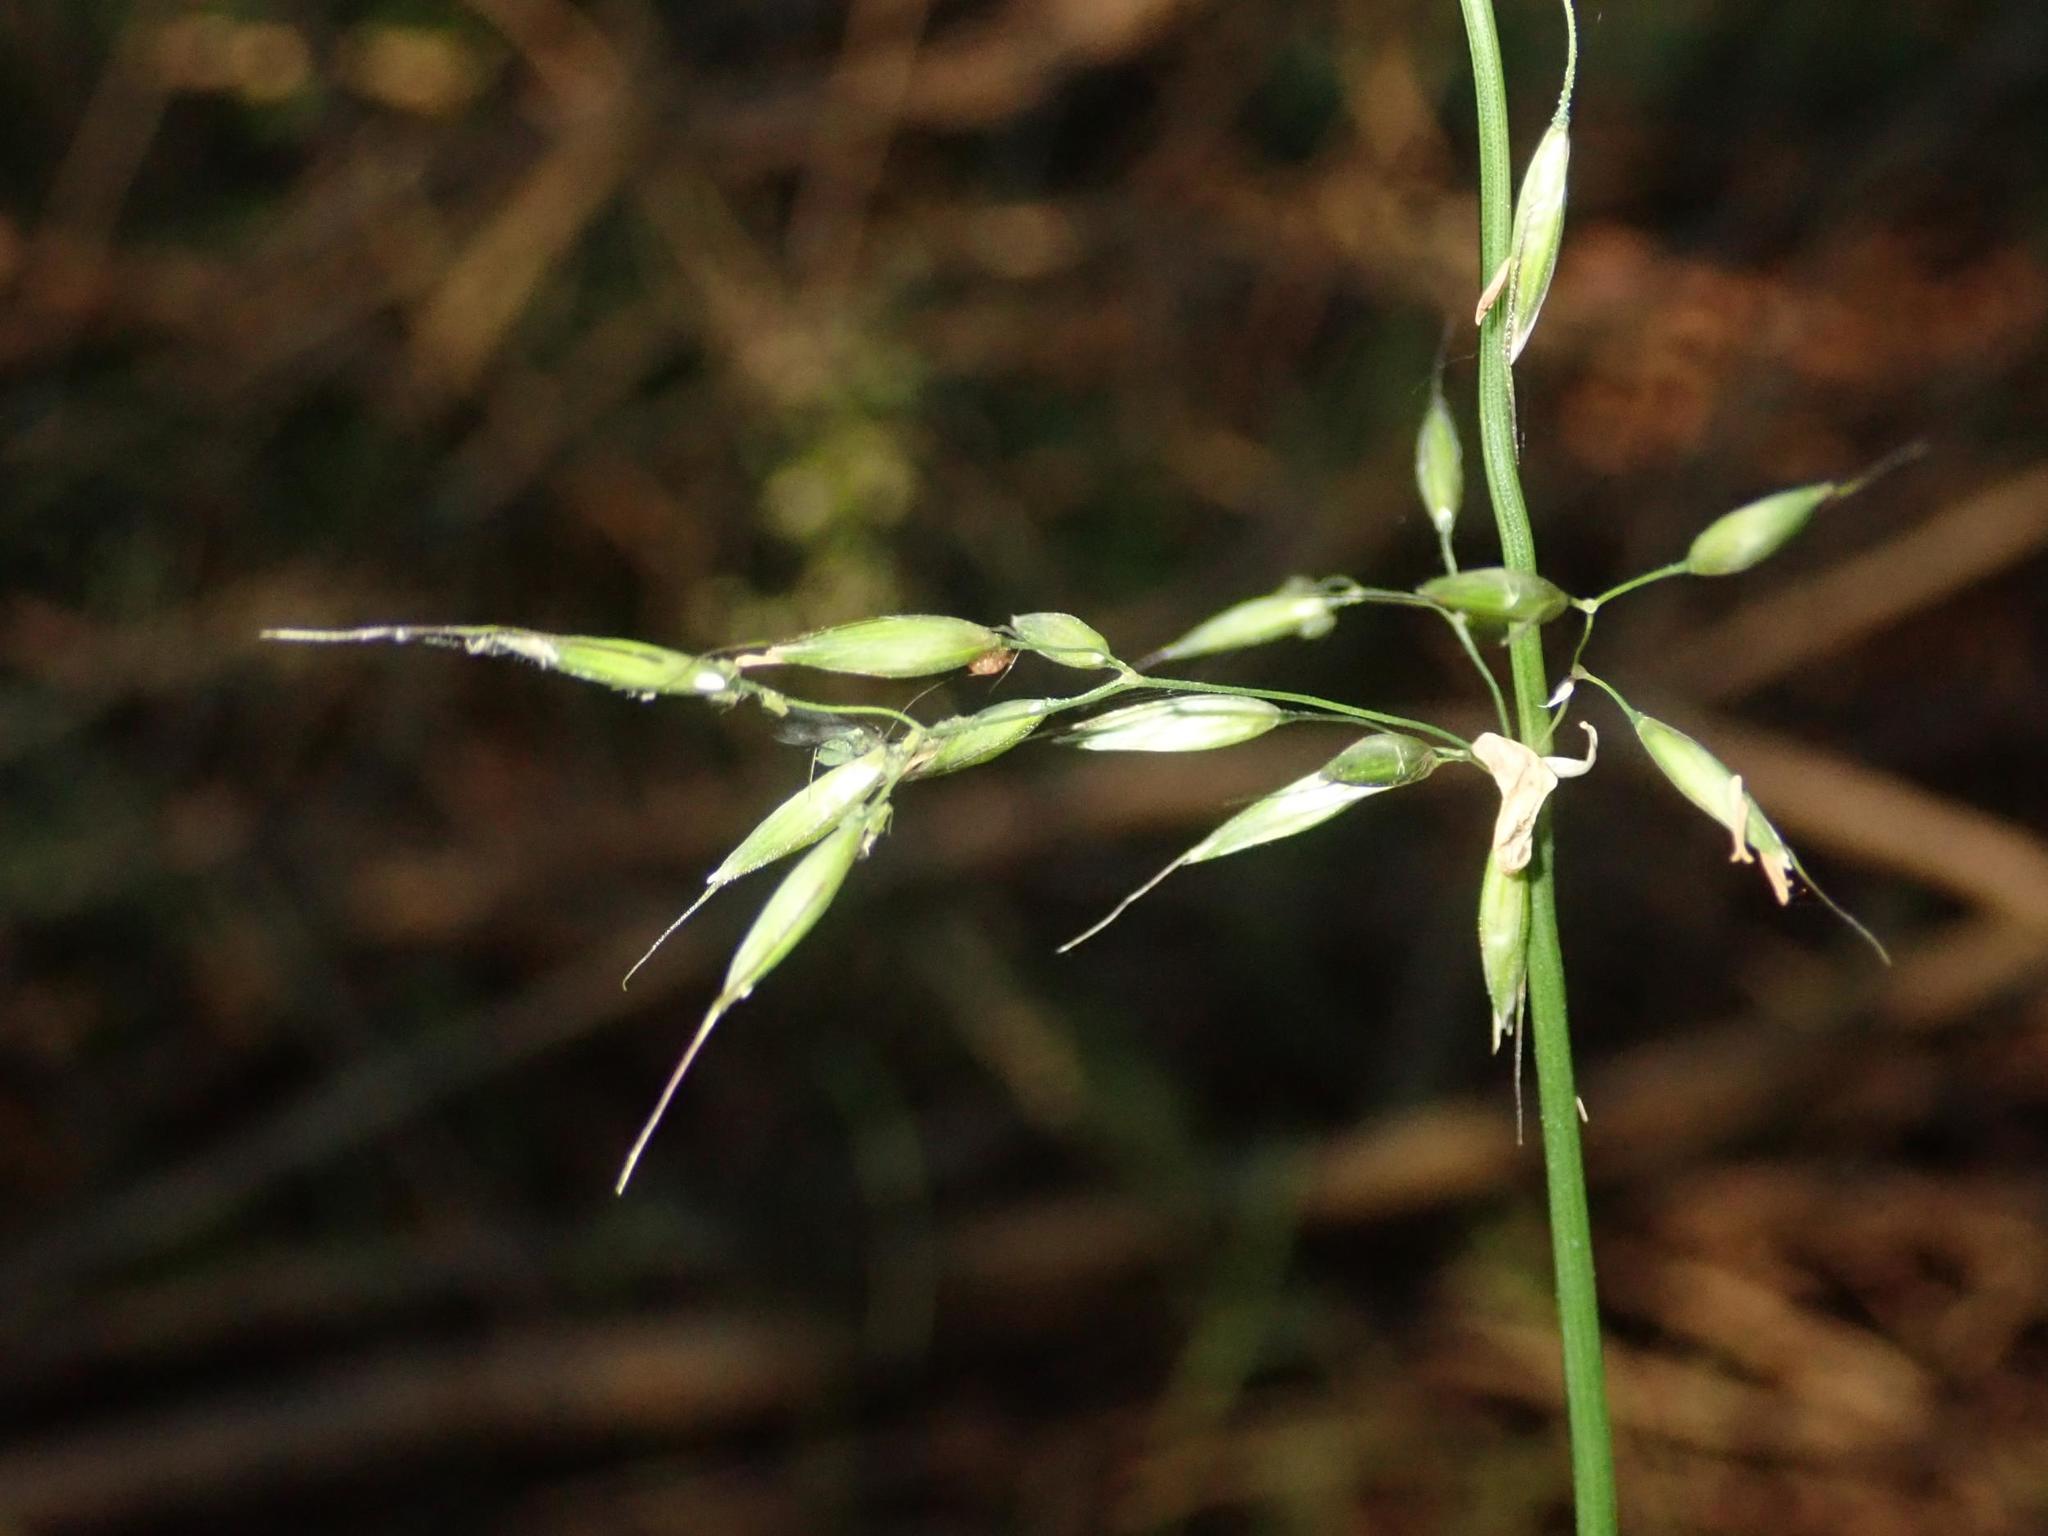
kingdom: Plantae
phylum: Tracheophyta
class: Liliopsida
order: Poales
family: Poaceae
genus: Arrhenatherum
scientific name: Arrhenatherum elatius
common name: Tall oatgrass
